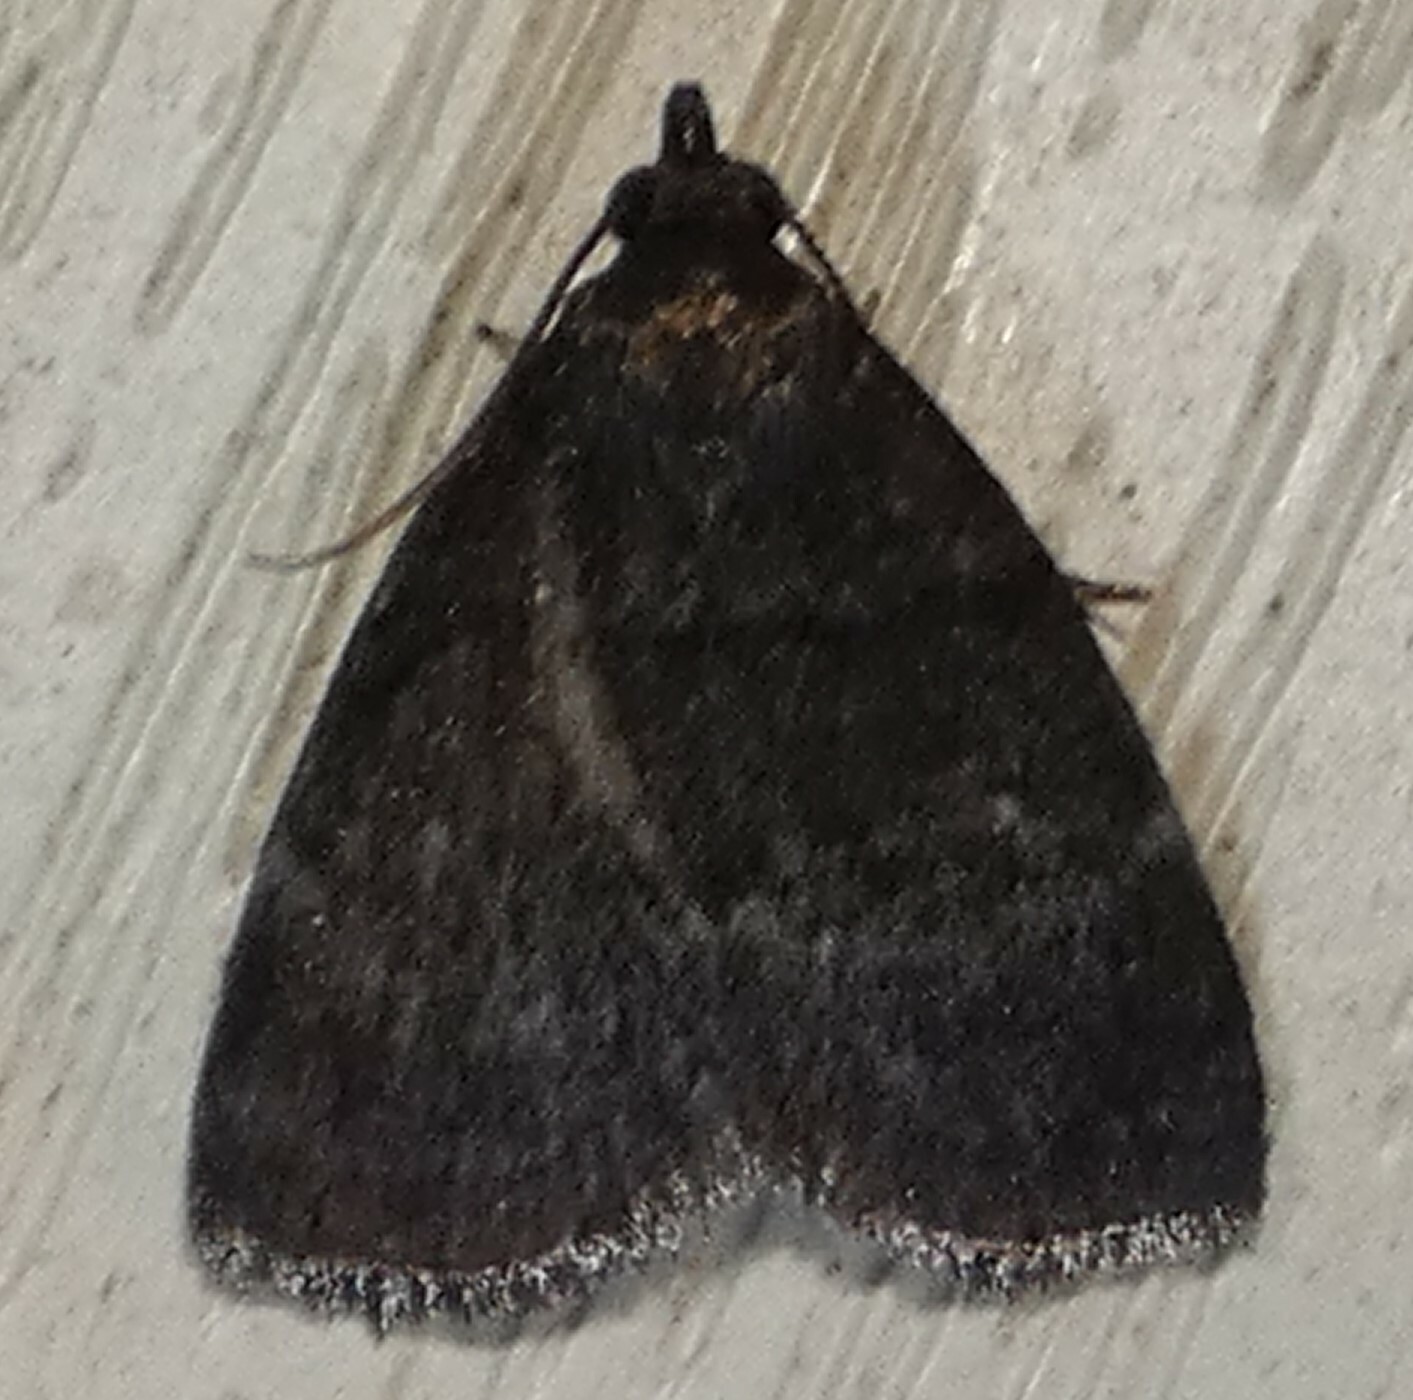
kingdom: Animalia
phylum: Arthropoda
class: Insecta
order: Lepidoptera
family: Erebidae
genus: Idia
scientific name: Idia rotundalis
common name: Rotund idia moth
